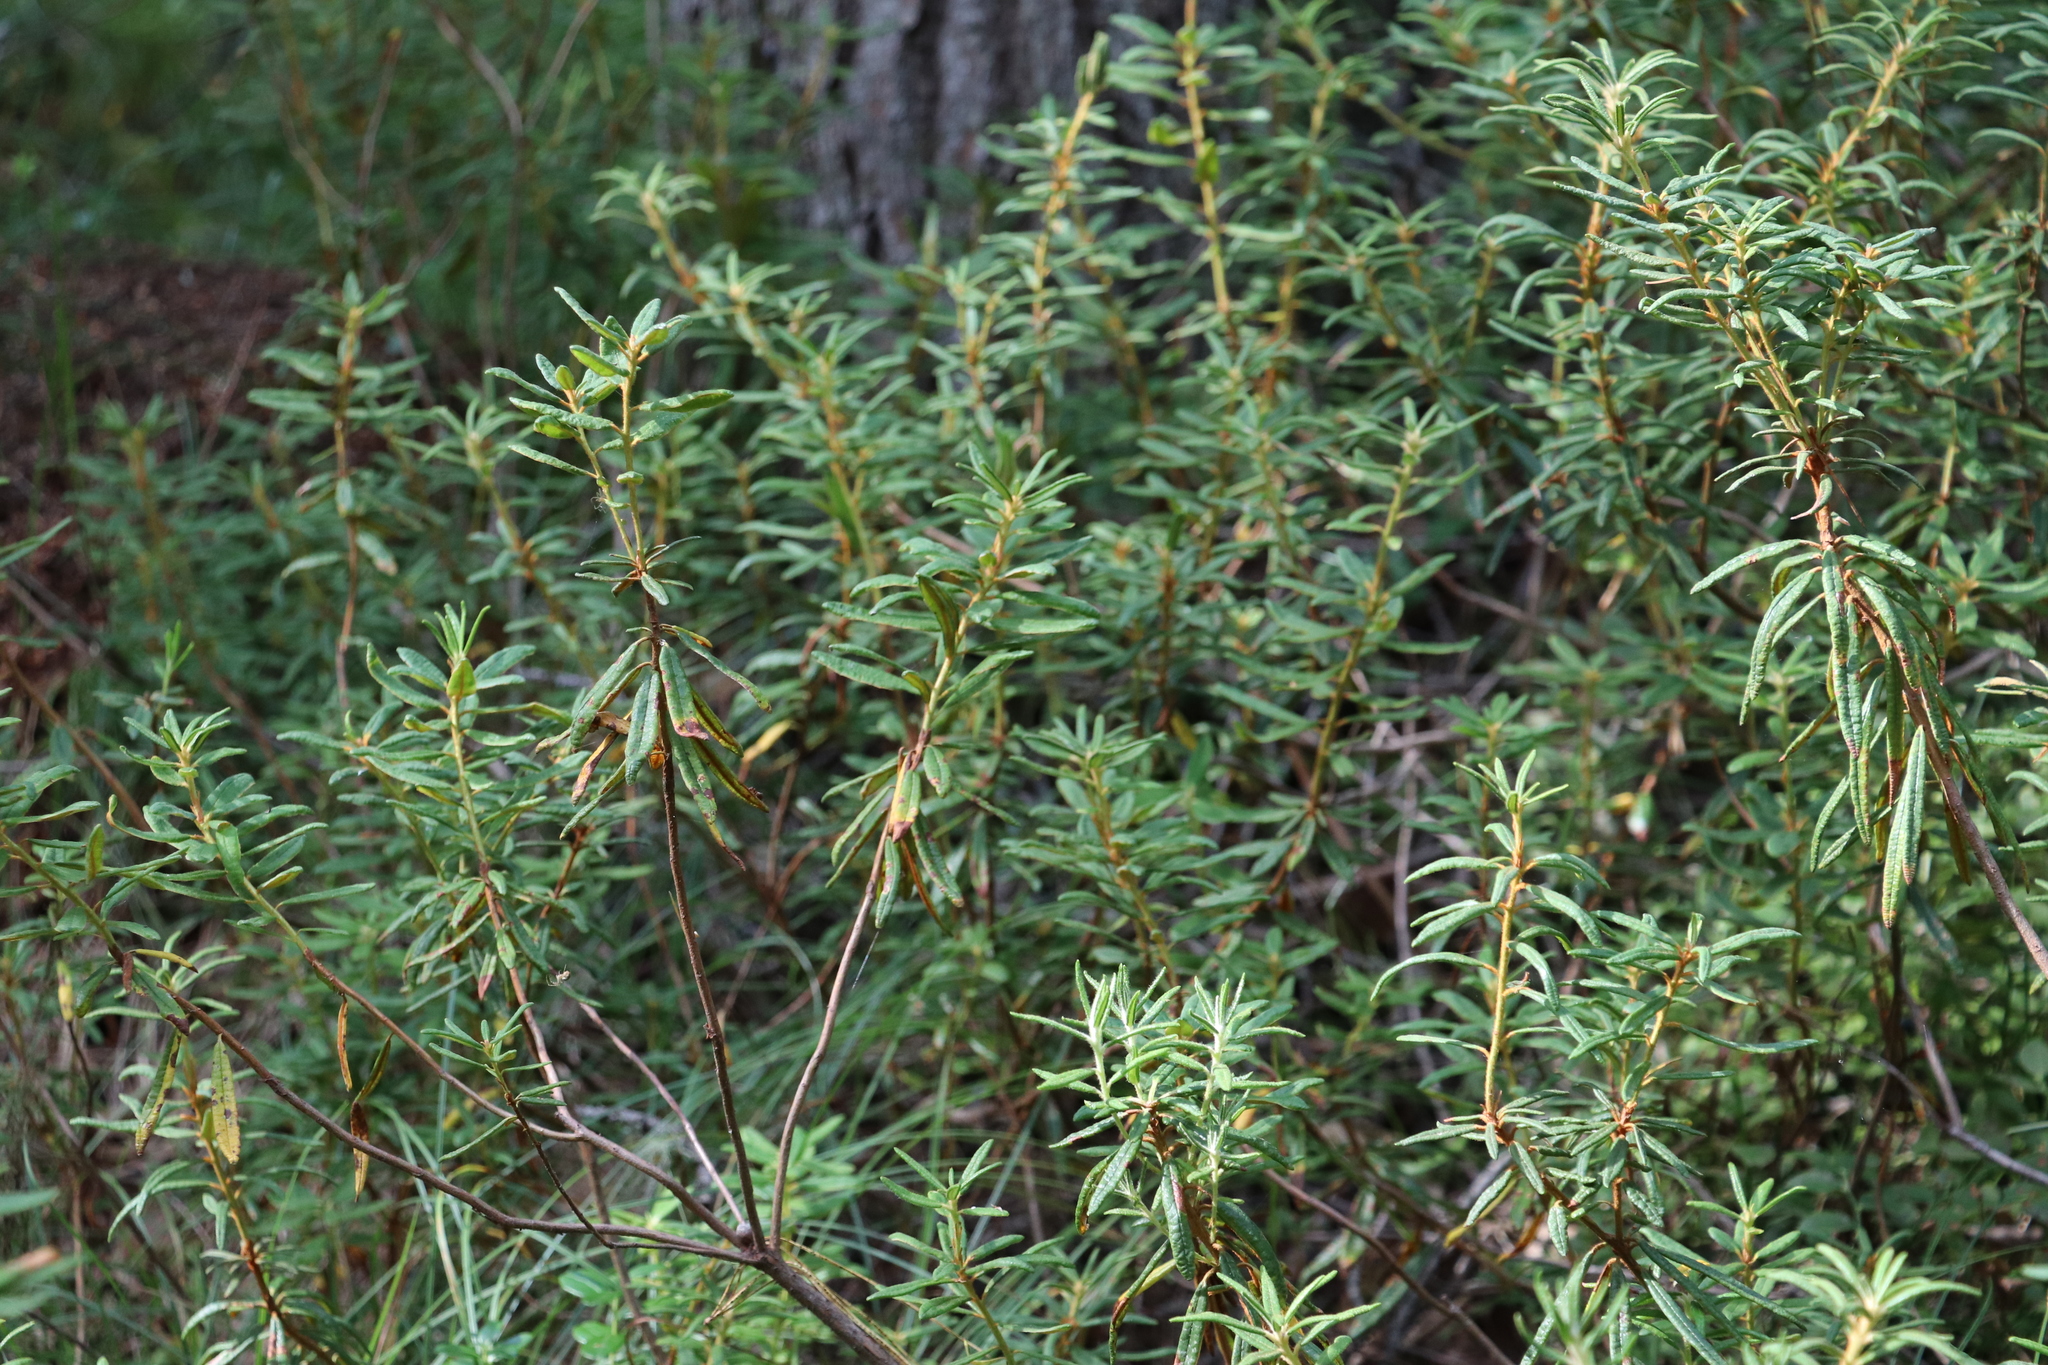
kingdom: Plantae
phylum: Tracheophyta
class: Magnoliopsida
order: Ericales
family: Ericaceae
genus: Rhododendron
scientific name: Rhododendron tomentosum
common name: Marsh labrador tea
